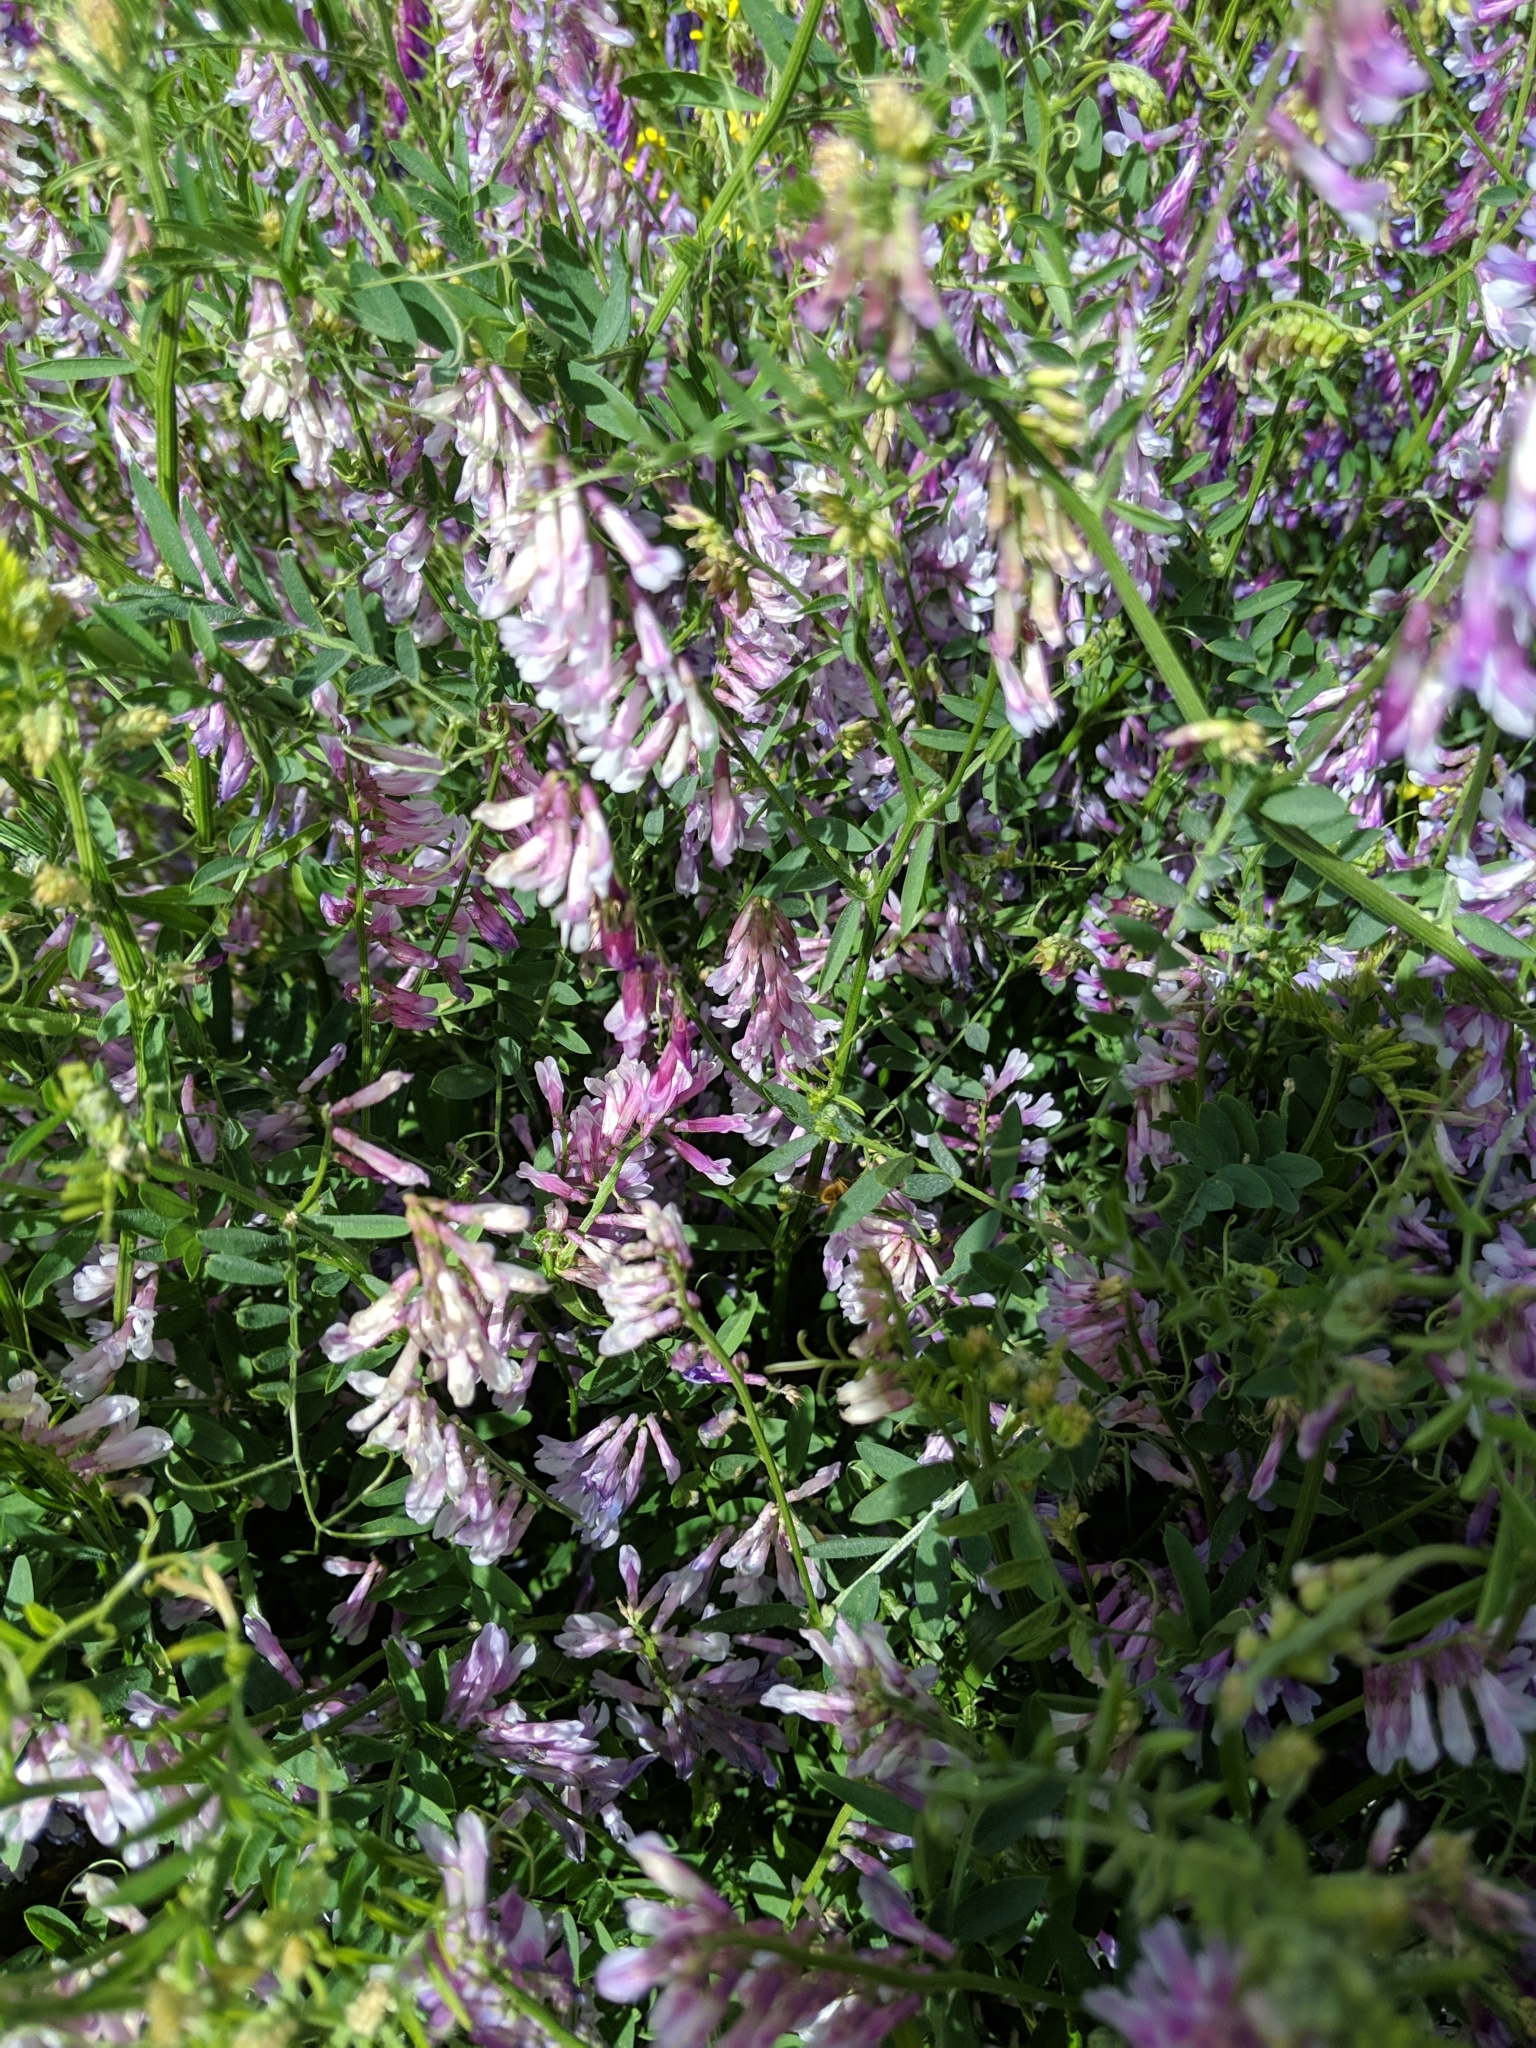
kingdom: Plantae
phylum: Tracheophyta
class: Magnoliopsida
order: Fabales
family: Fabaceae
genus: Vicia
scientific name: Vicia villosa
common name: Fodder vetch
